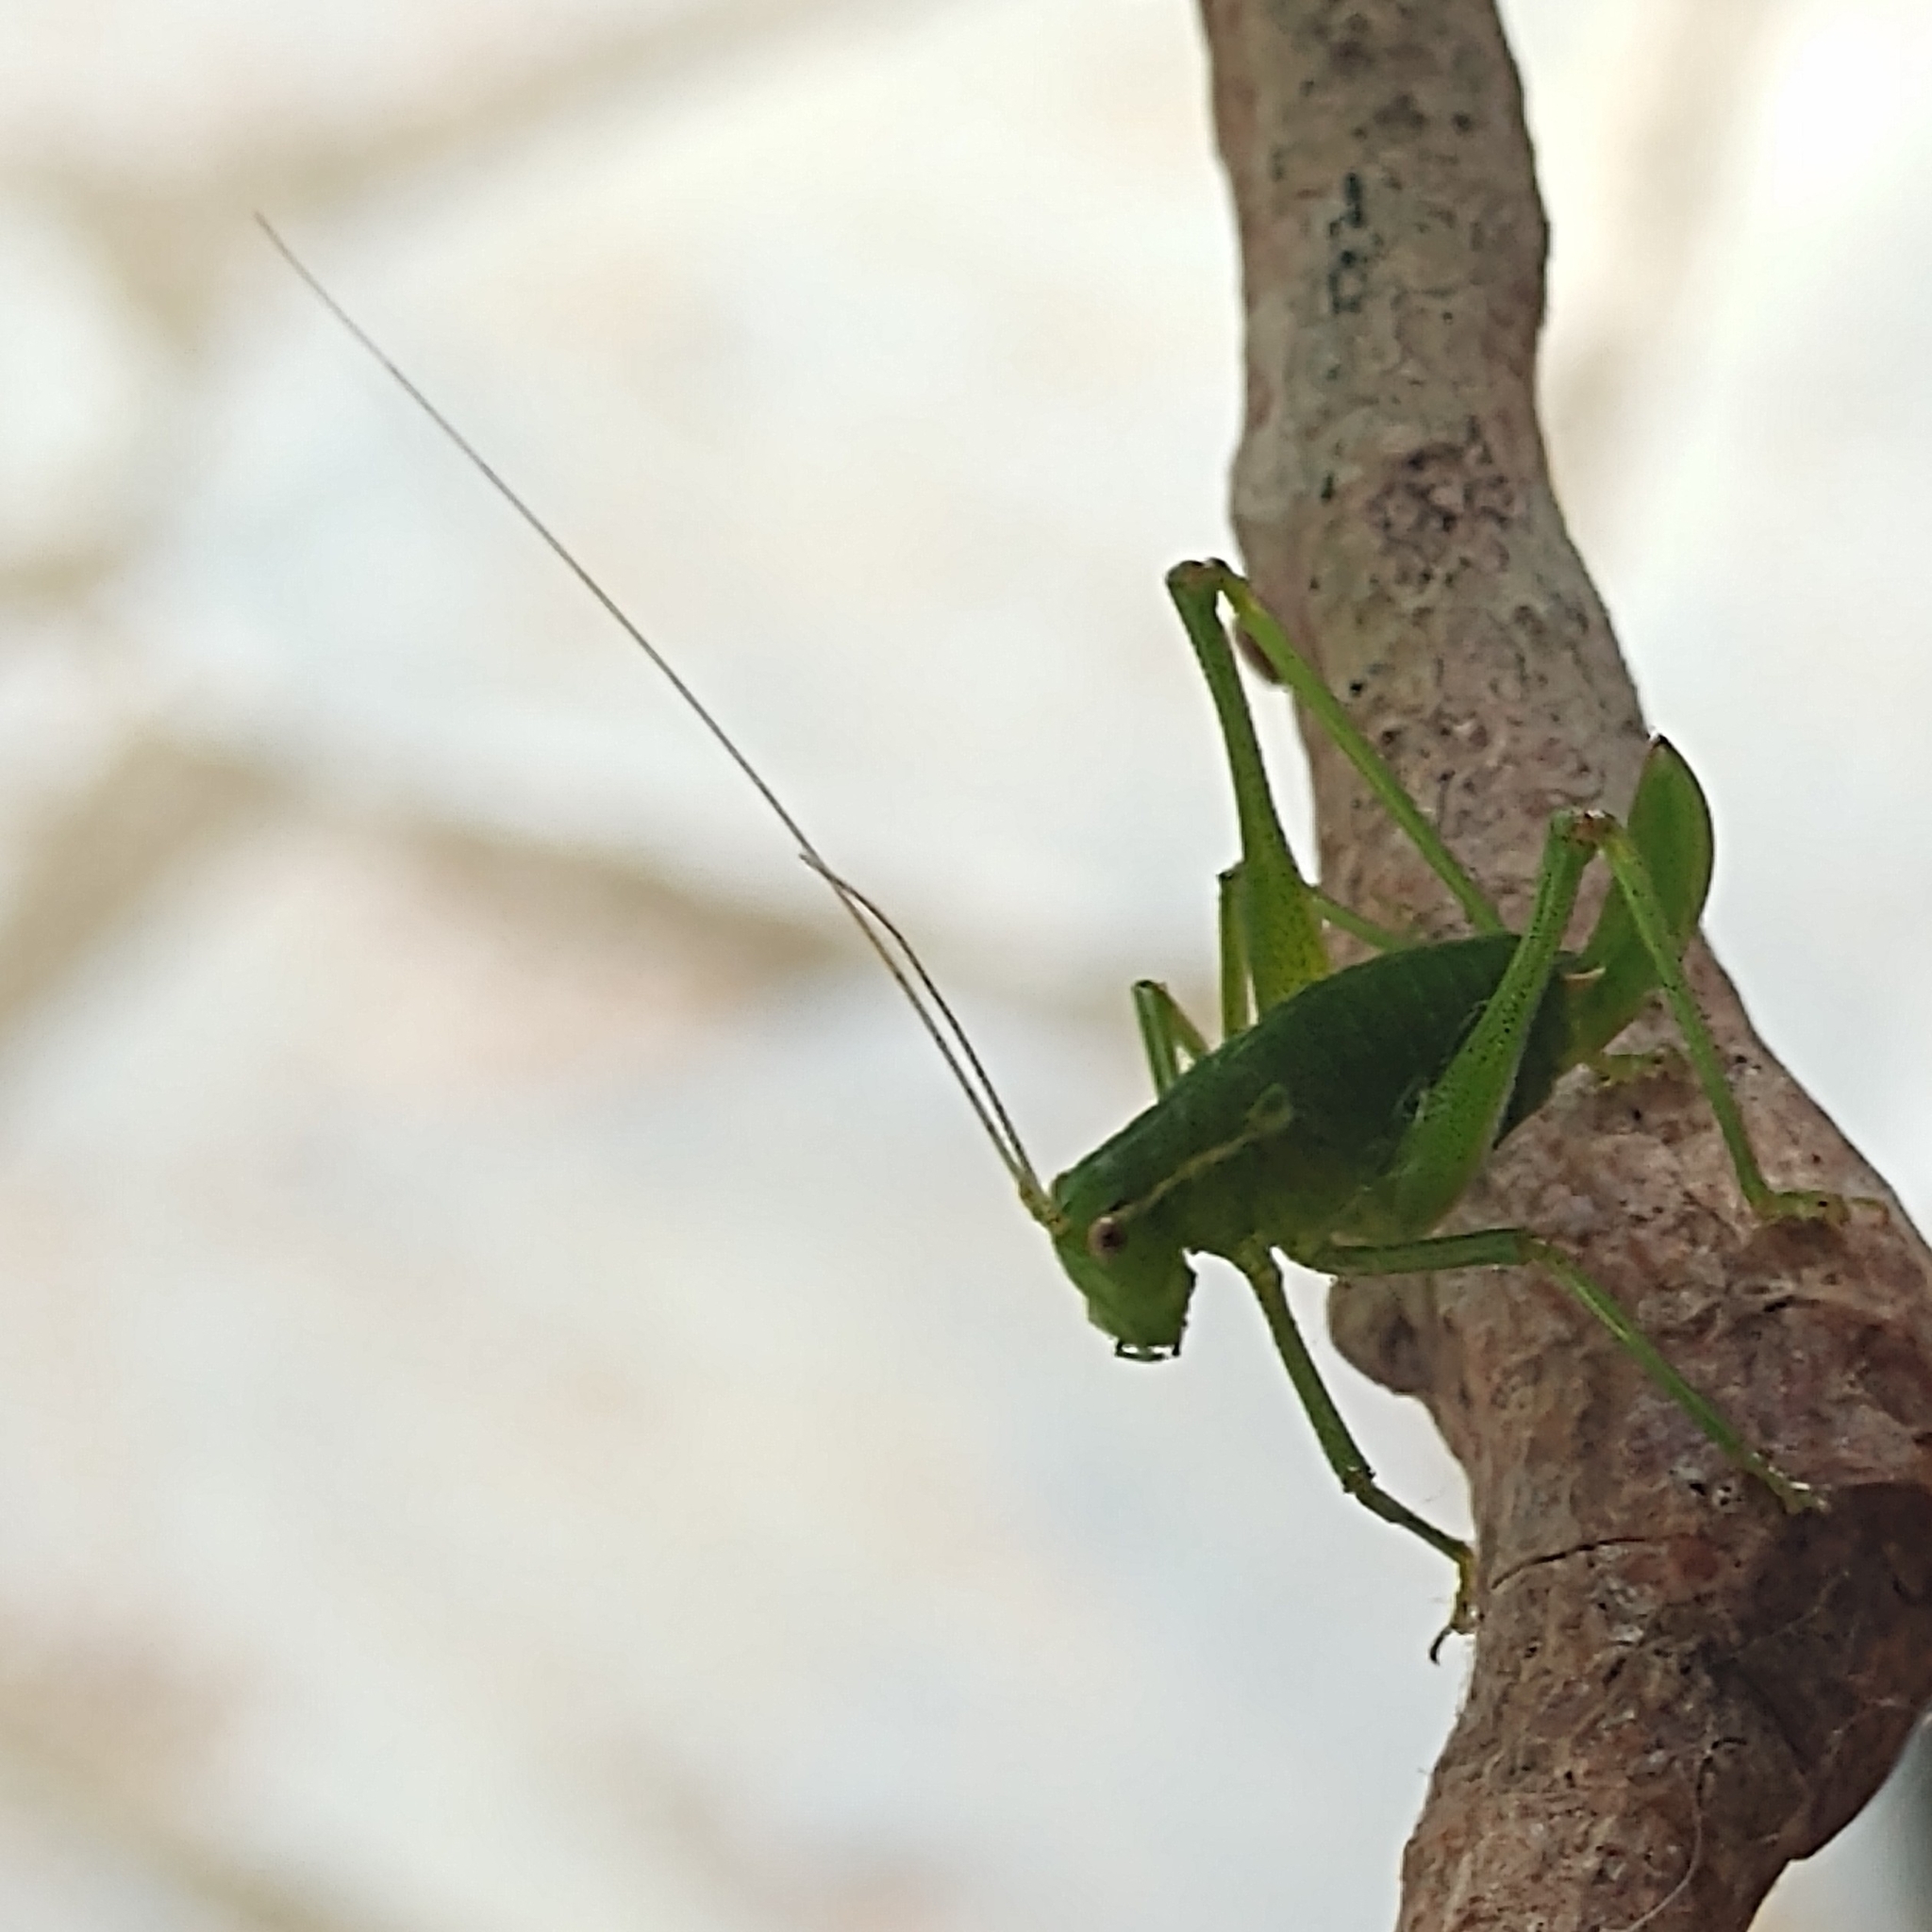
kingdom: Animalia
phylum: Arthropoda
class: Insecta
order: Orthoptera
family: Tettigoniidae
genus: Leptophyes
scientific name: Leptophyes punctatissima
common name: Speckled bush-cricket
